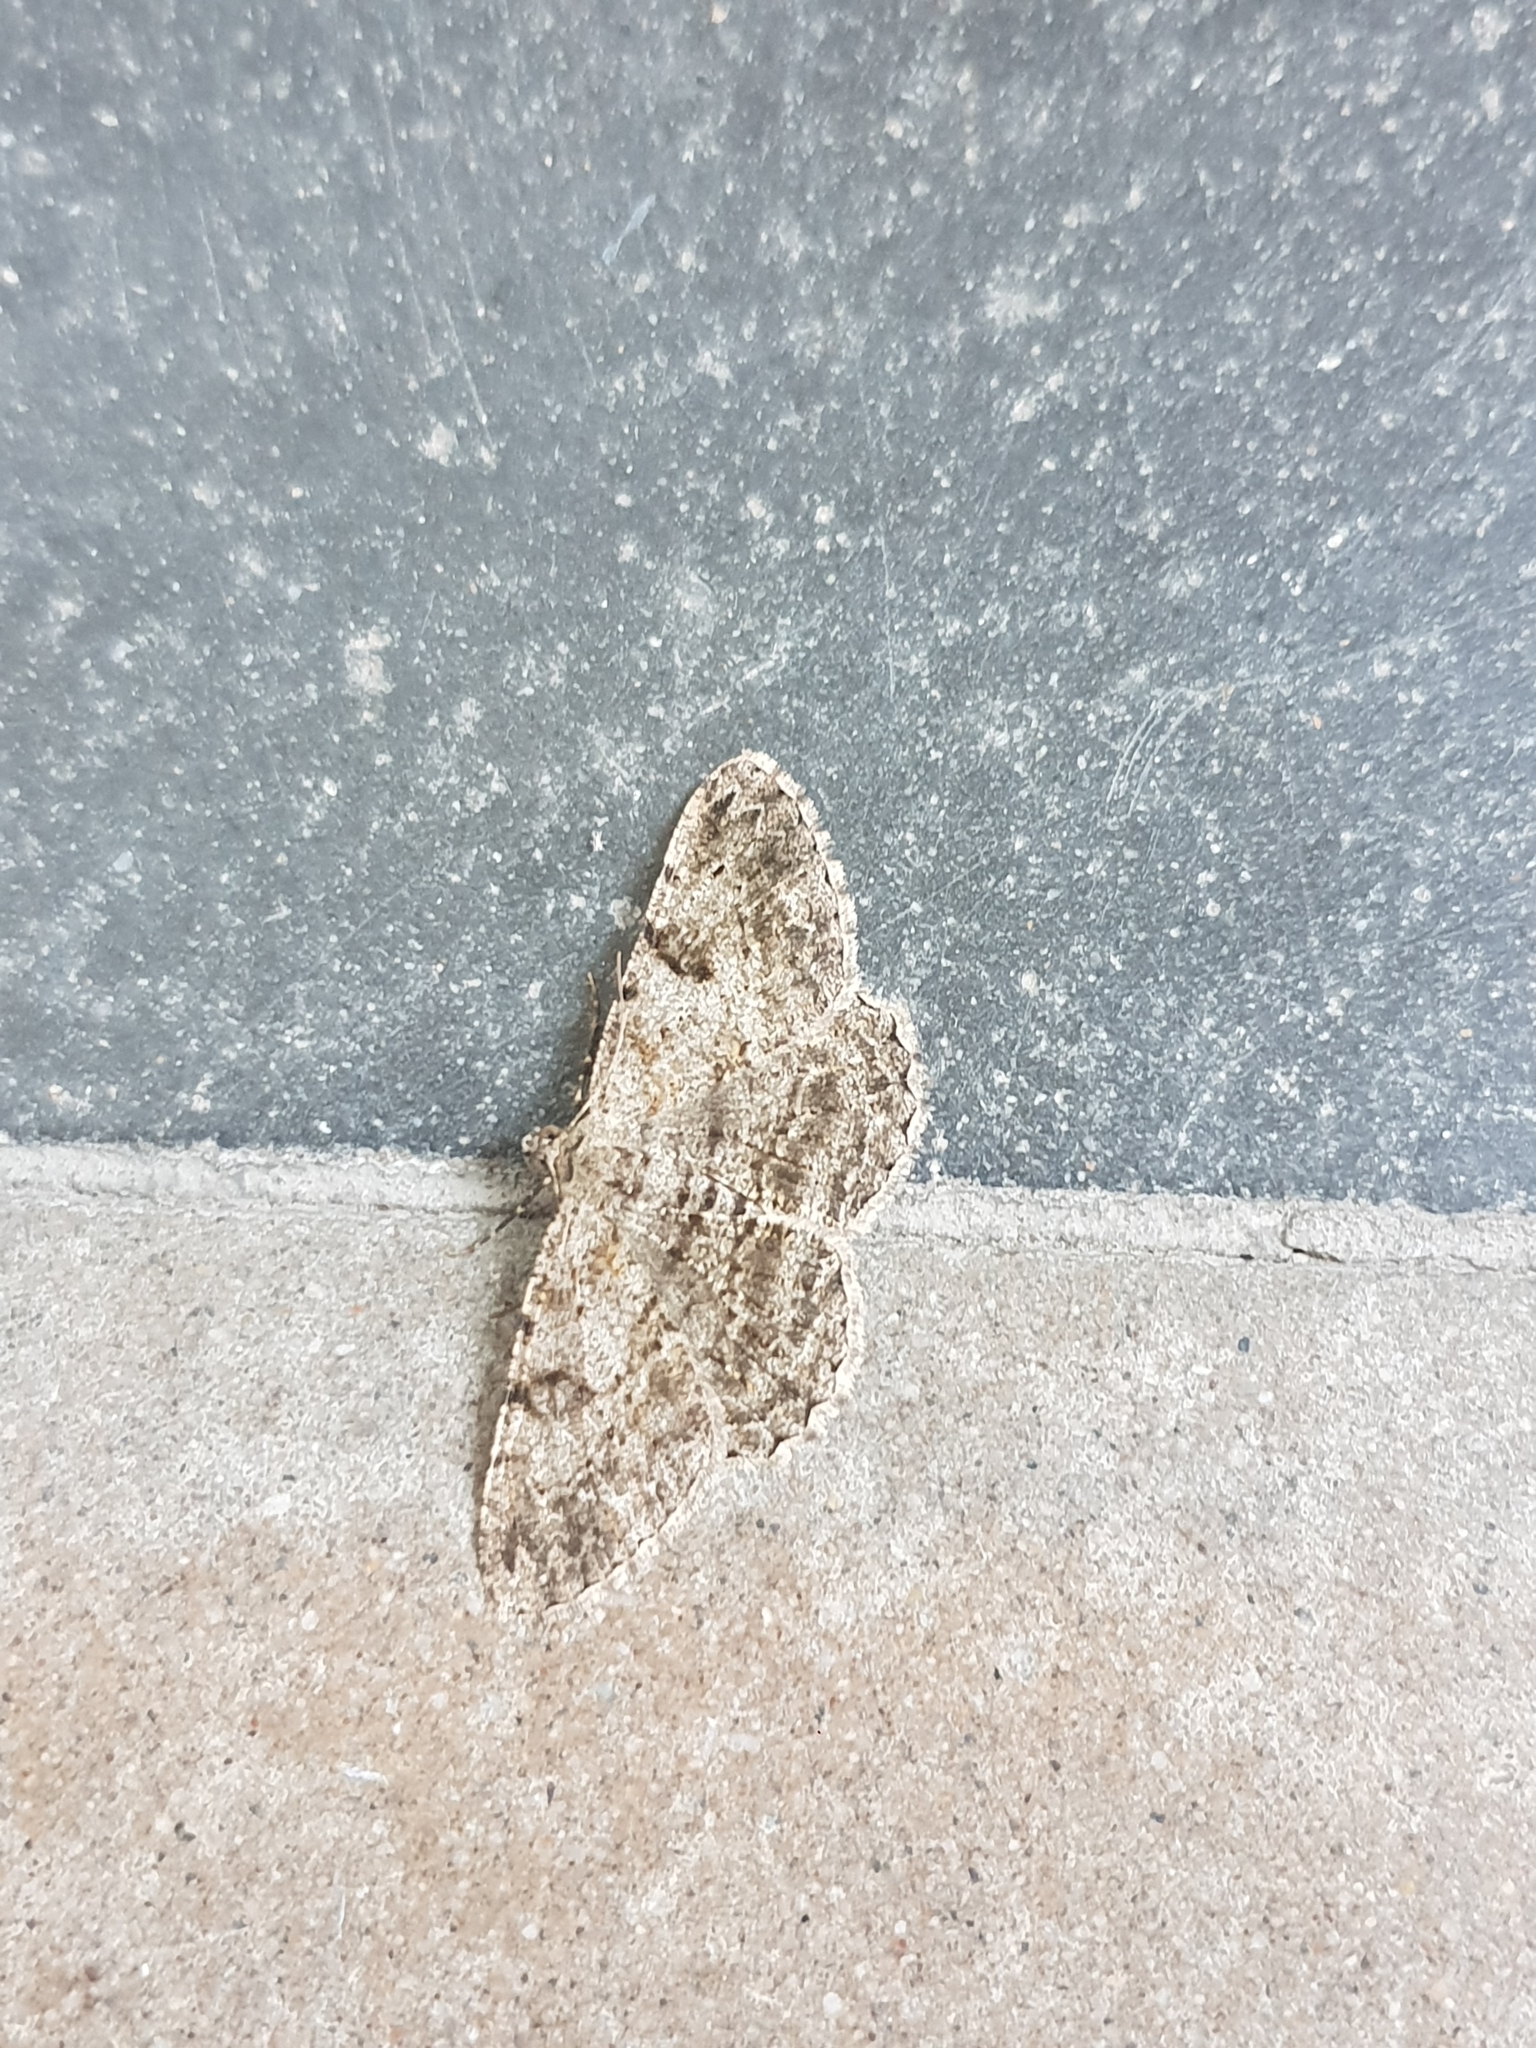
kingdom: Animalia
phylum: Arthropoda
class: Insecta
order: Lepidoptera
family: Geometridae
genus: Peribatodes
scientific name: Peribatodes rhomboidaria
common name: Willow beauty
